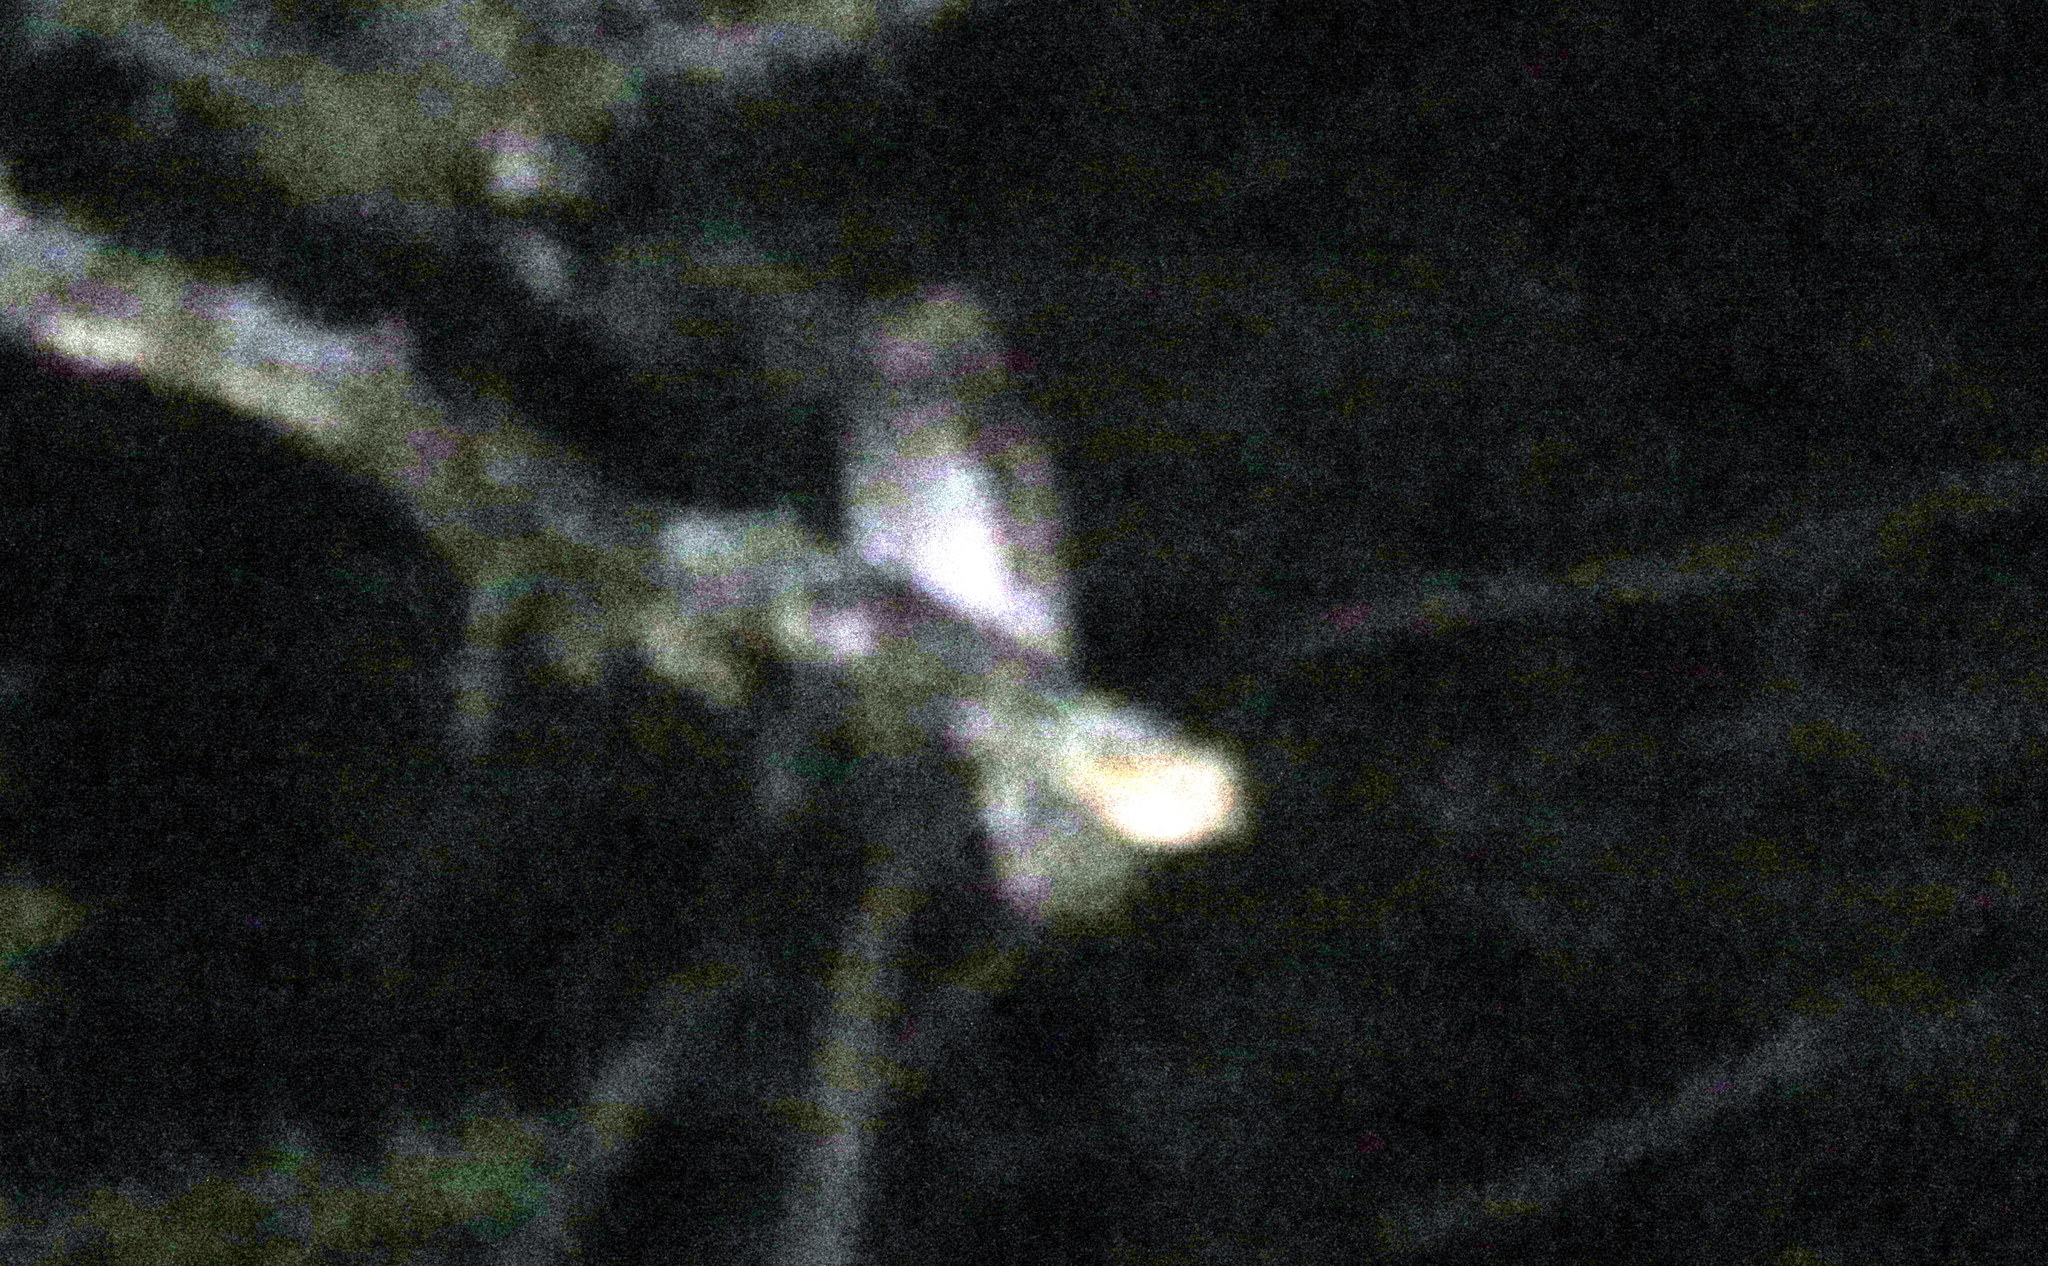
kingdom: Animalia
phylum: Chordata
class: Aves
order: Falconiformes
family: Falconidae
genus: Micrastur
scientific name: Micrastur ruficollis
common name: Barred forest-falcon
